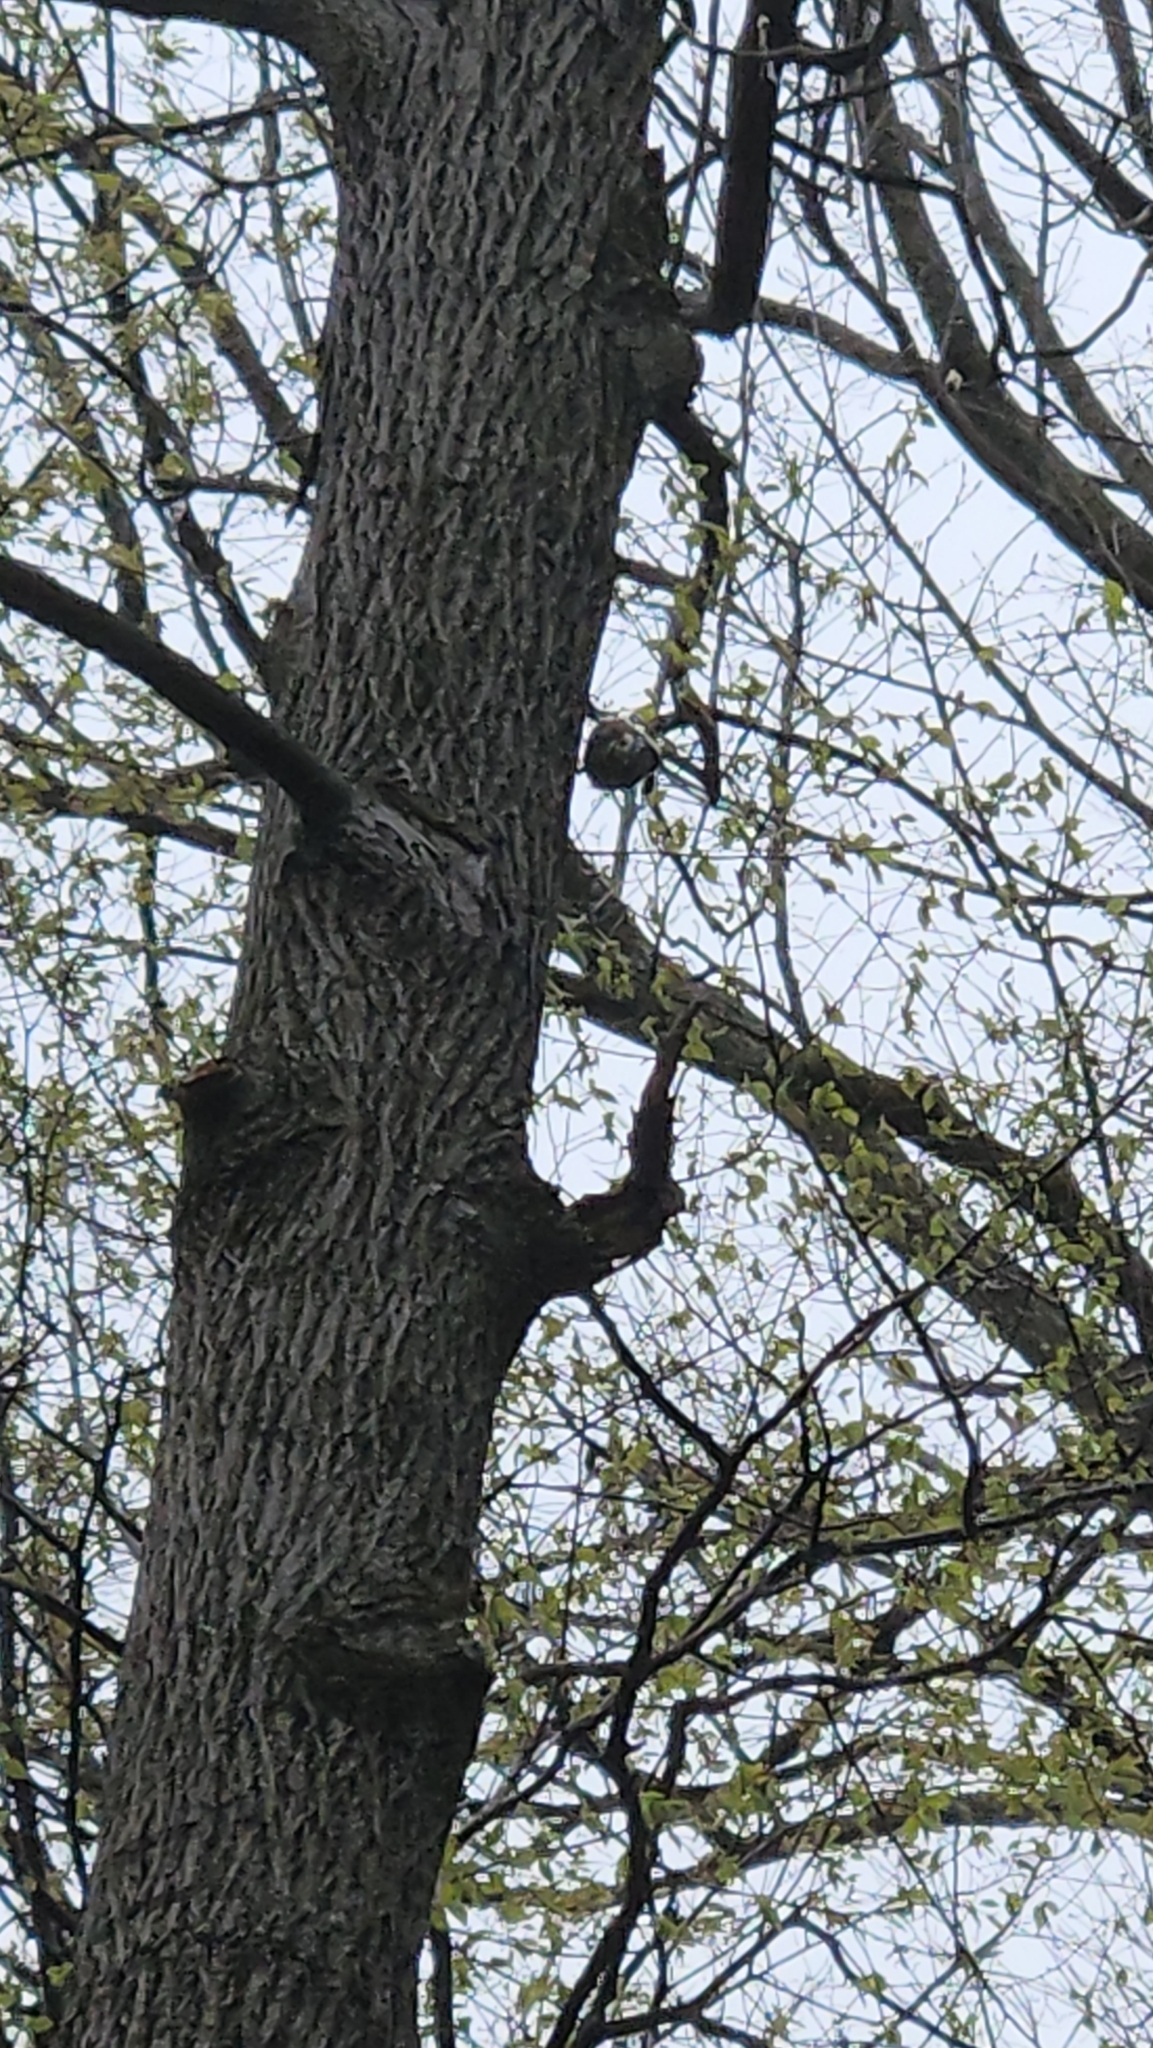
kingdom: Animalia
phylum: Chordata
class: Aves
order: Passeriformes
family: Sittidae
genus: Sitta
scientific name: Sitta carolinensis
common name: White-breasted nuthatch
